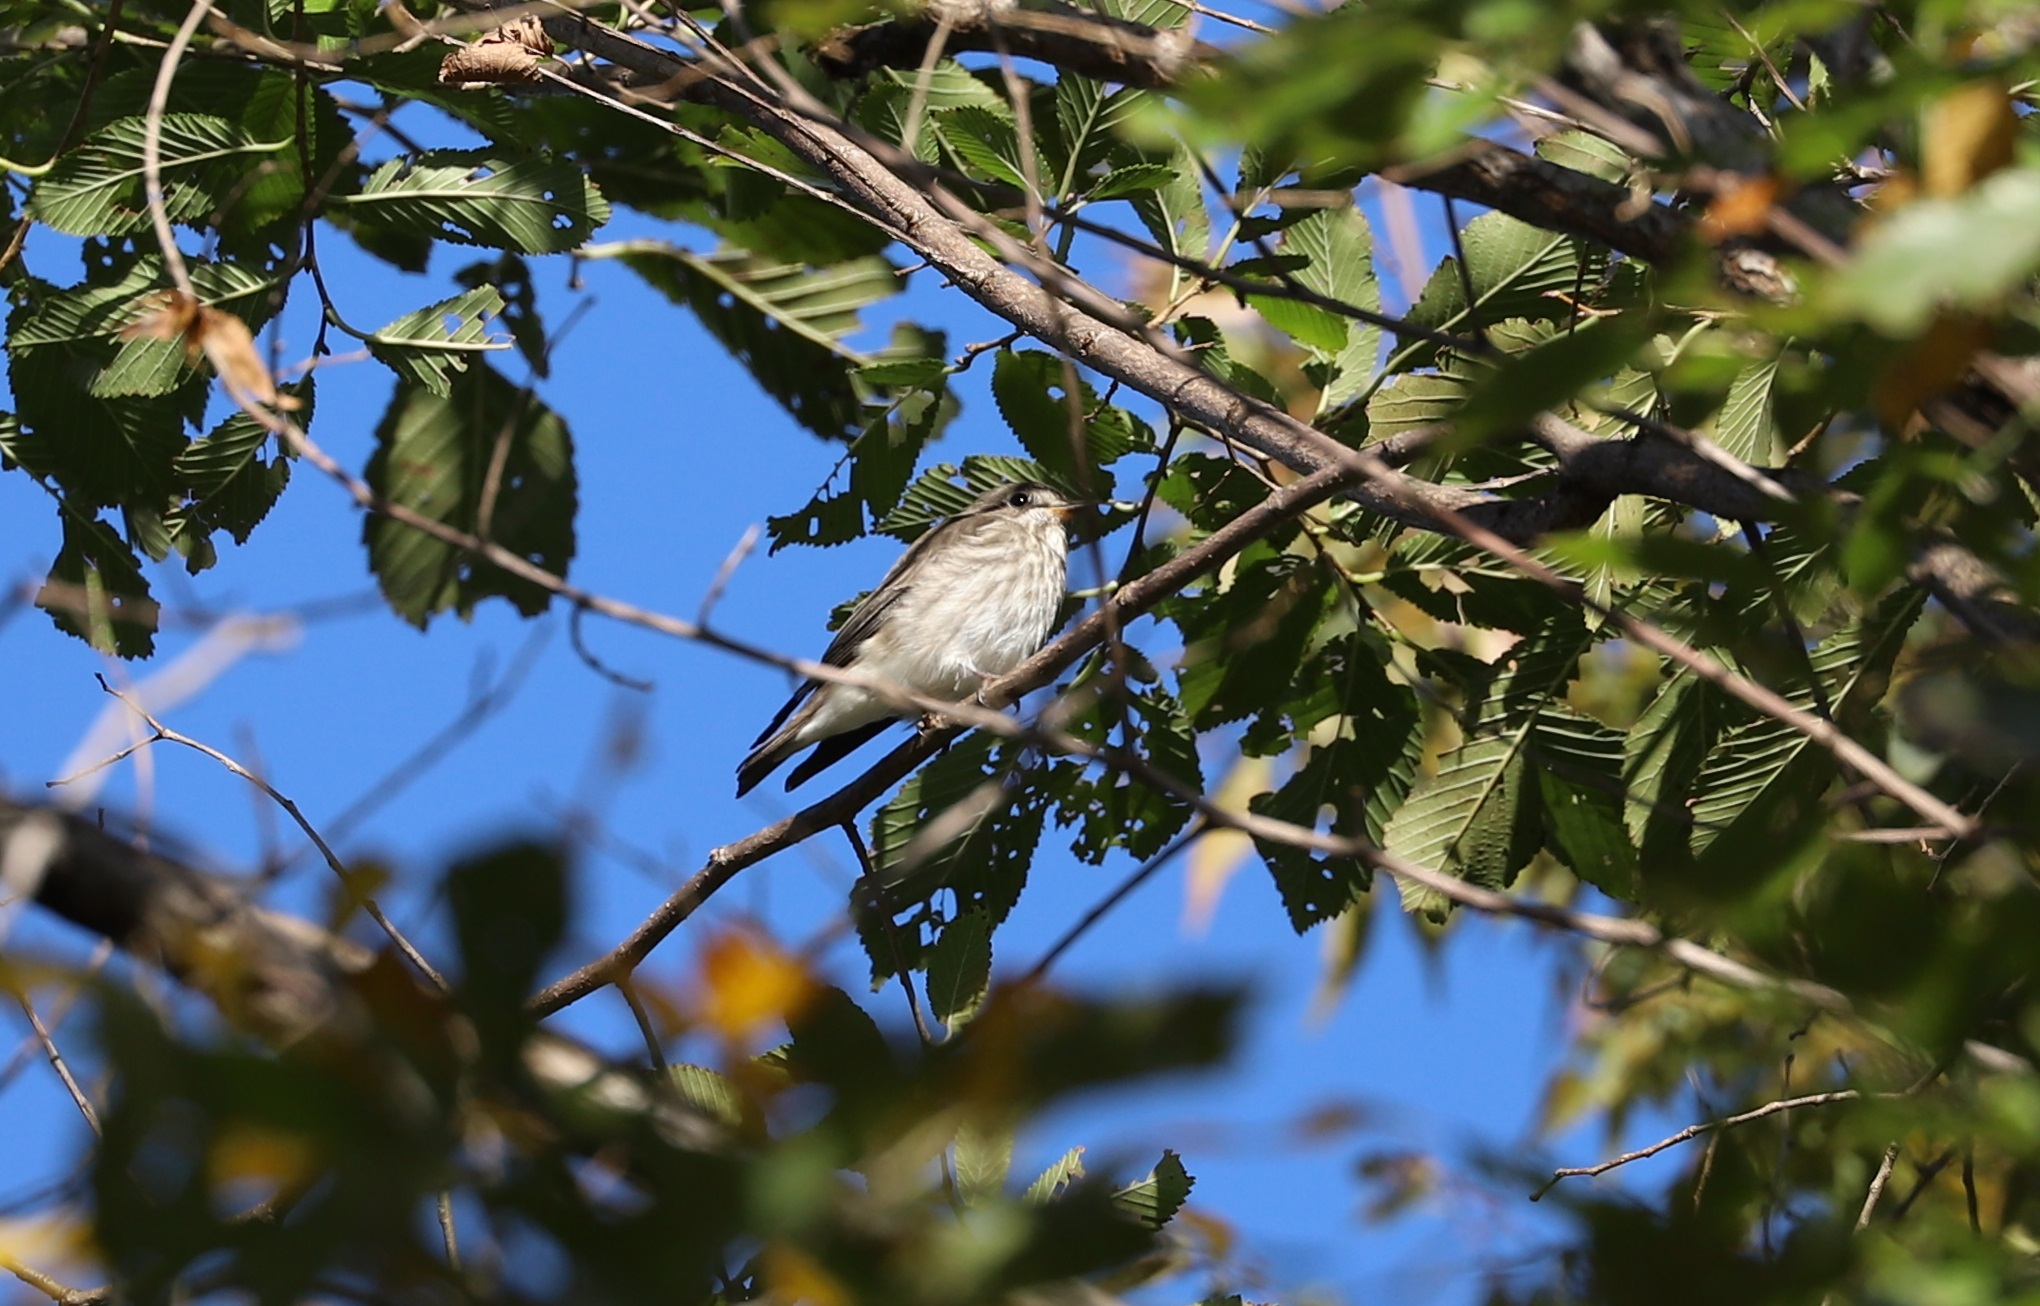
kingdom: Animalia
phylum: Chordata
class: Aves
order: Passeriformes
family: Muscicapidae
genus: Muscicapa
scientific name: Muscicapa griseisticta
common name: Gray-streaked flycatcher
